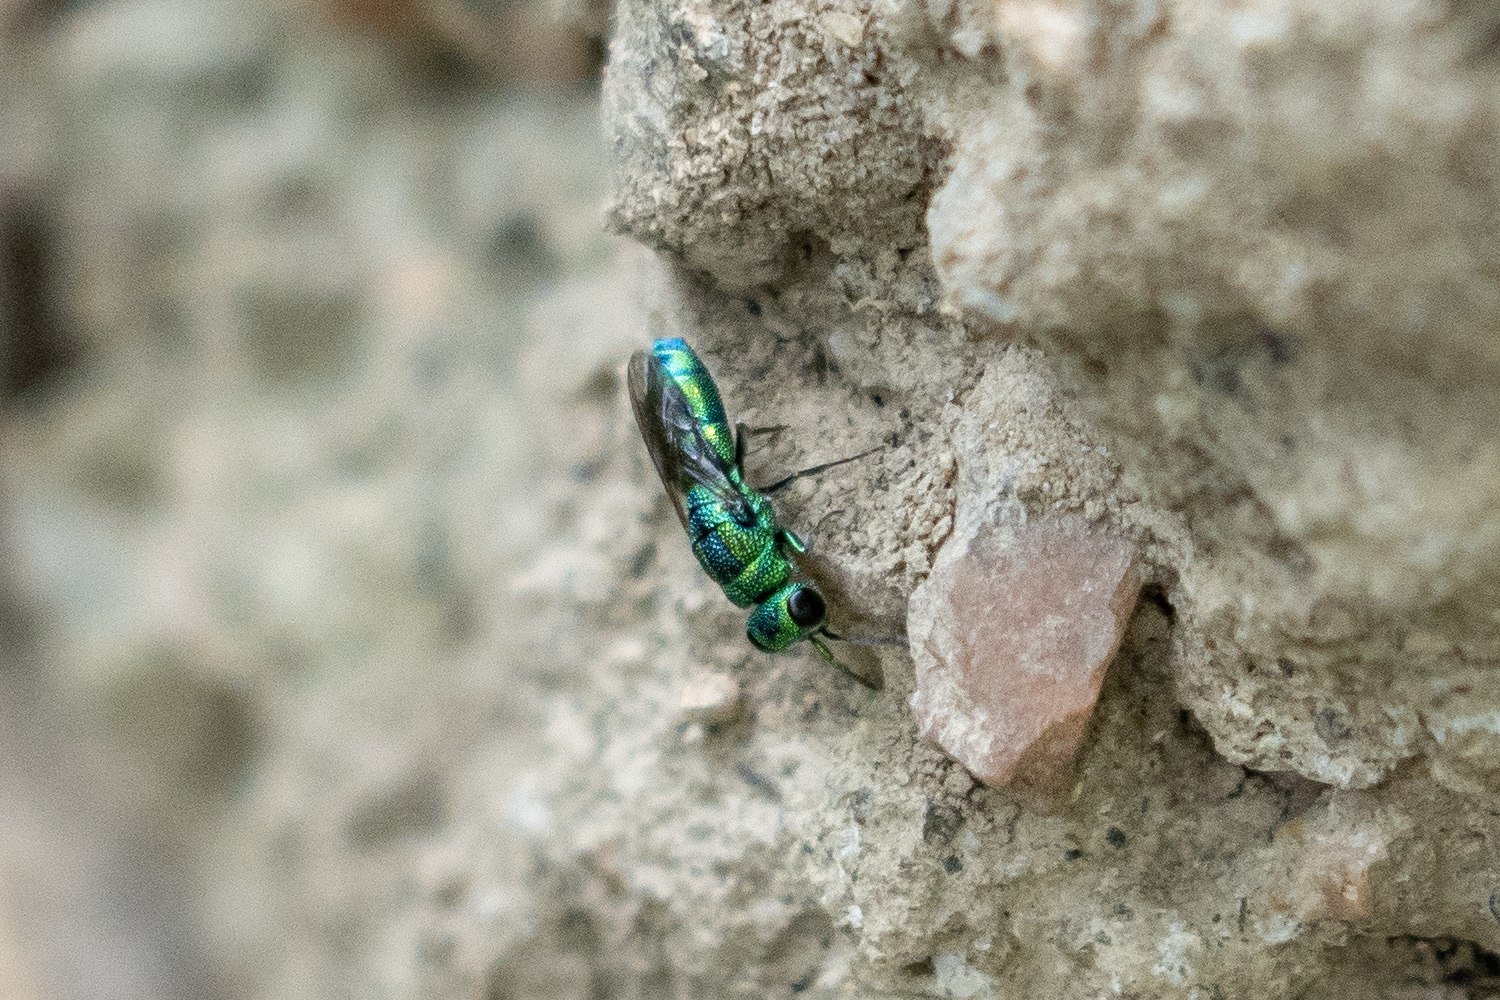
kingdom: Animalia
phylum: Arthropoda
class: Insecta
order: Hymenoptera
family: Chrysididae
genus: Trichrysis
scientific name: Trichrysis
